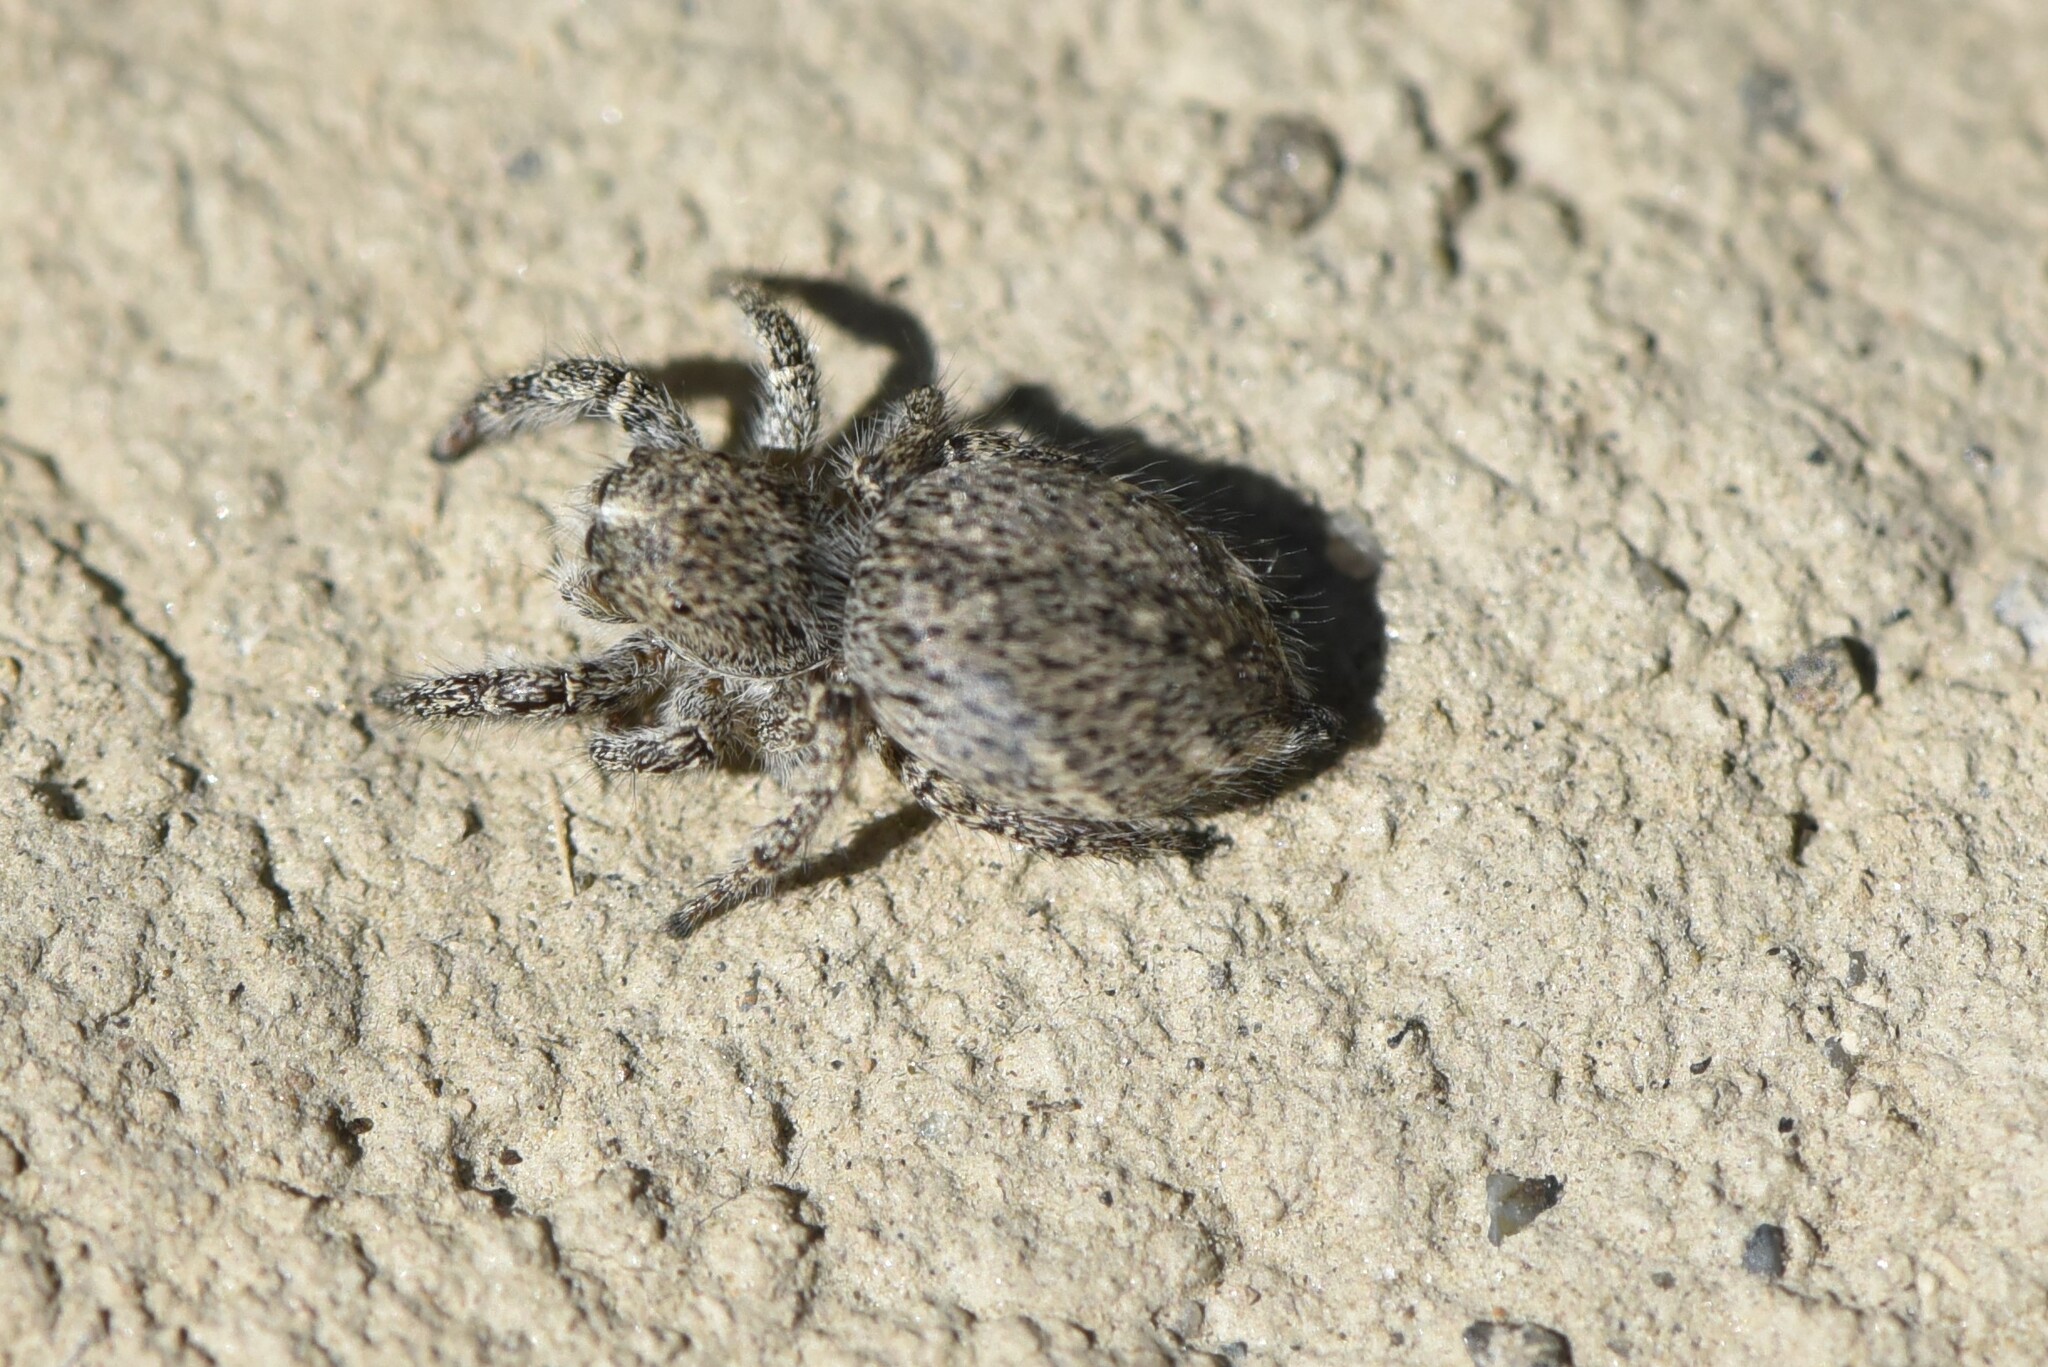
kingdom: Animalia
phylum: Arthropoda
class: Arachnida
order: Araneae
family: Salticidae
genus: Habronattus
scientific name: Habronattus hirsutus
